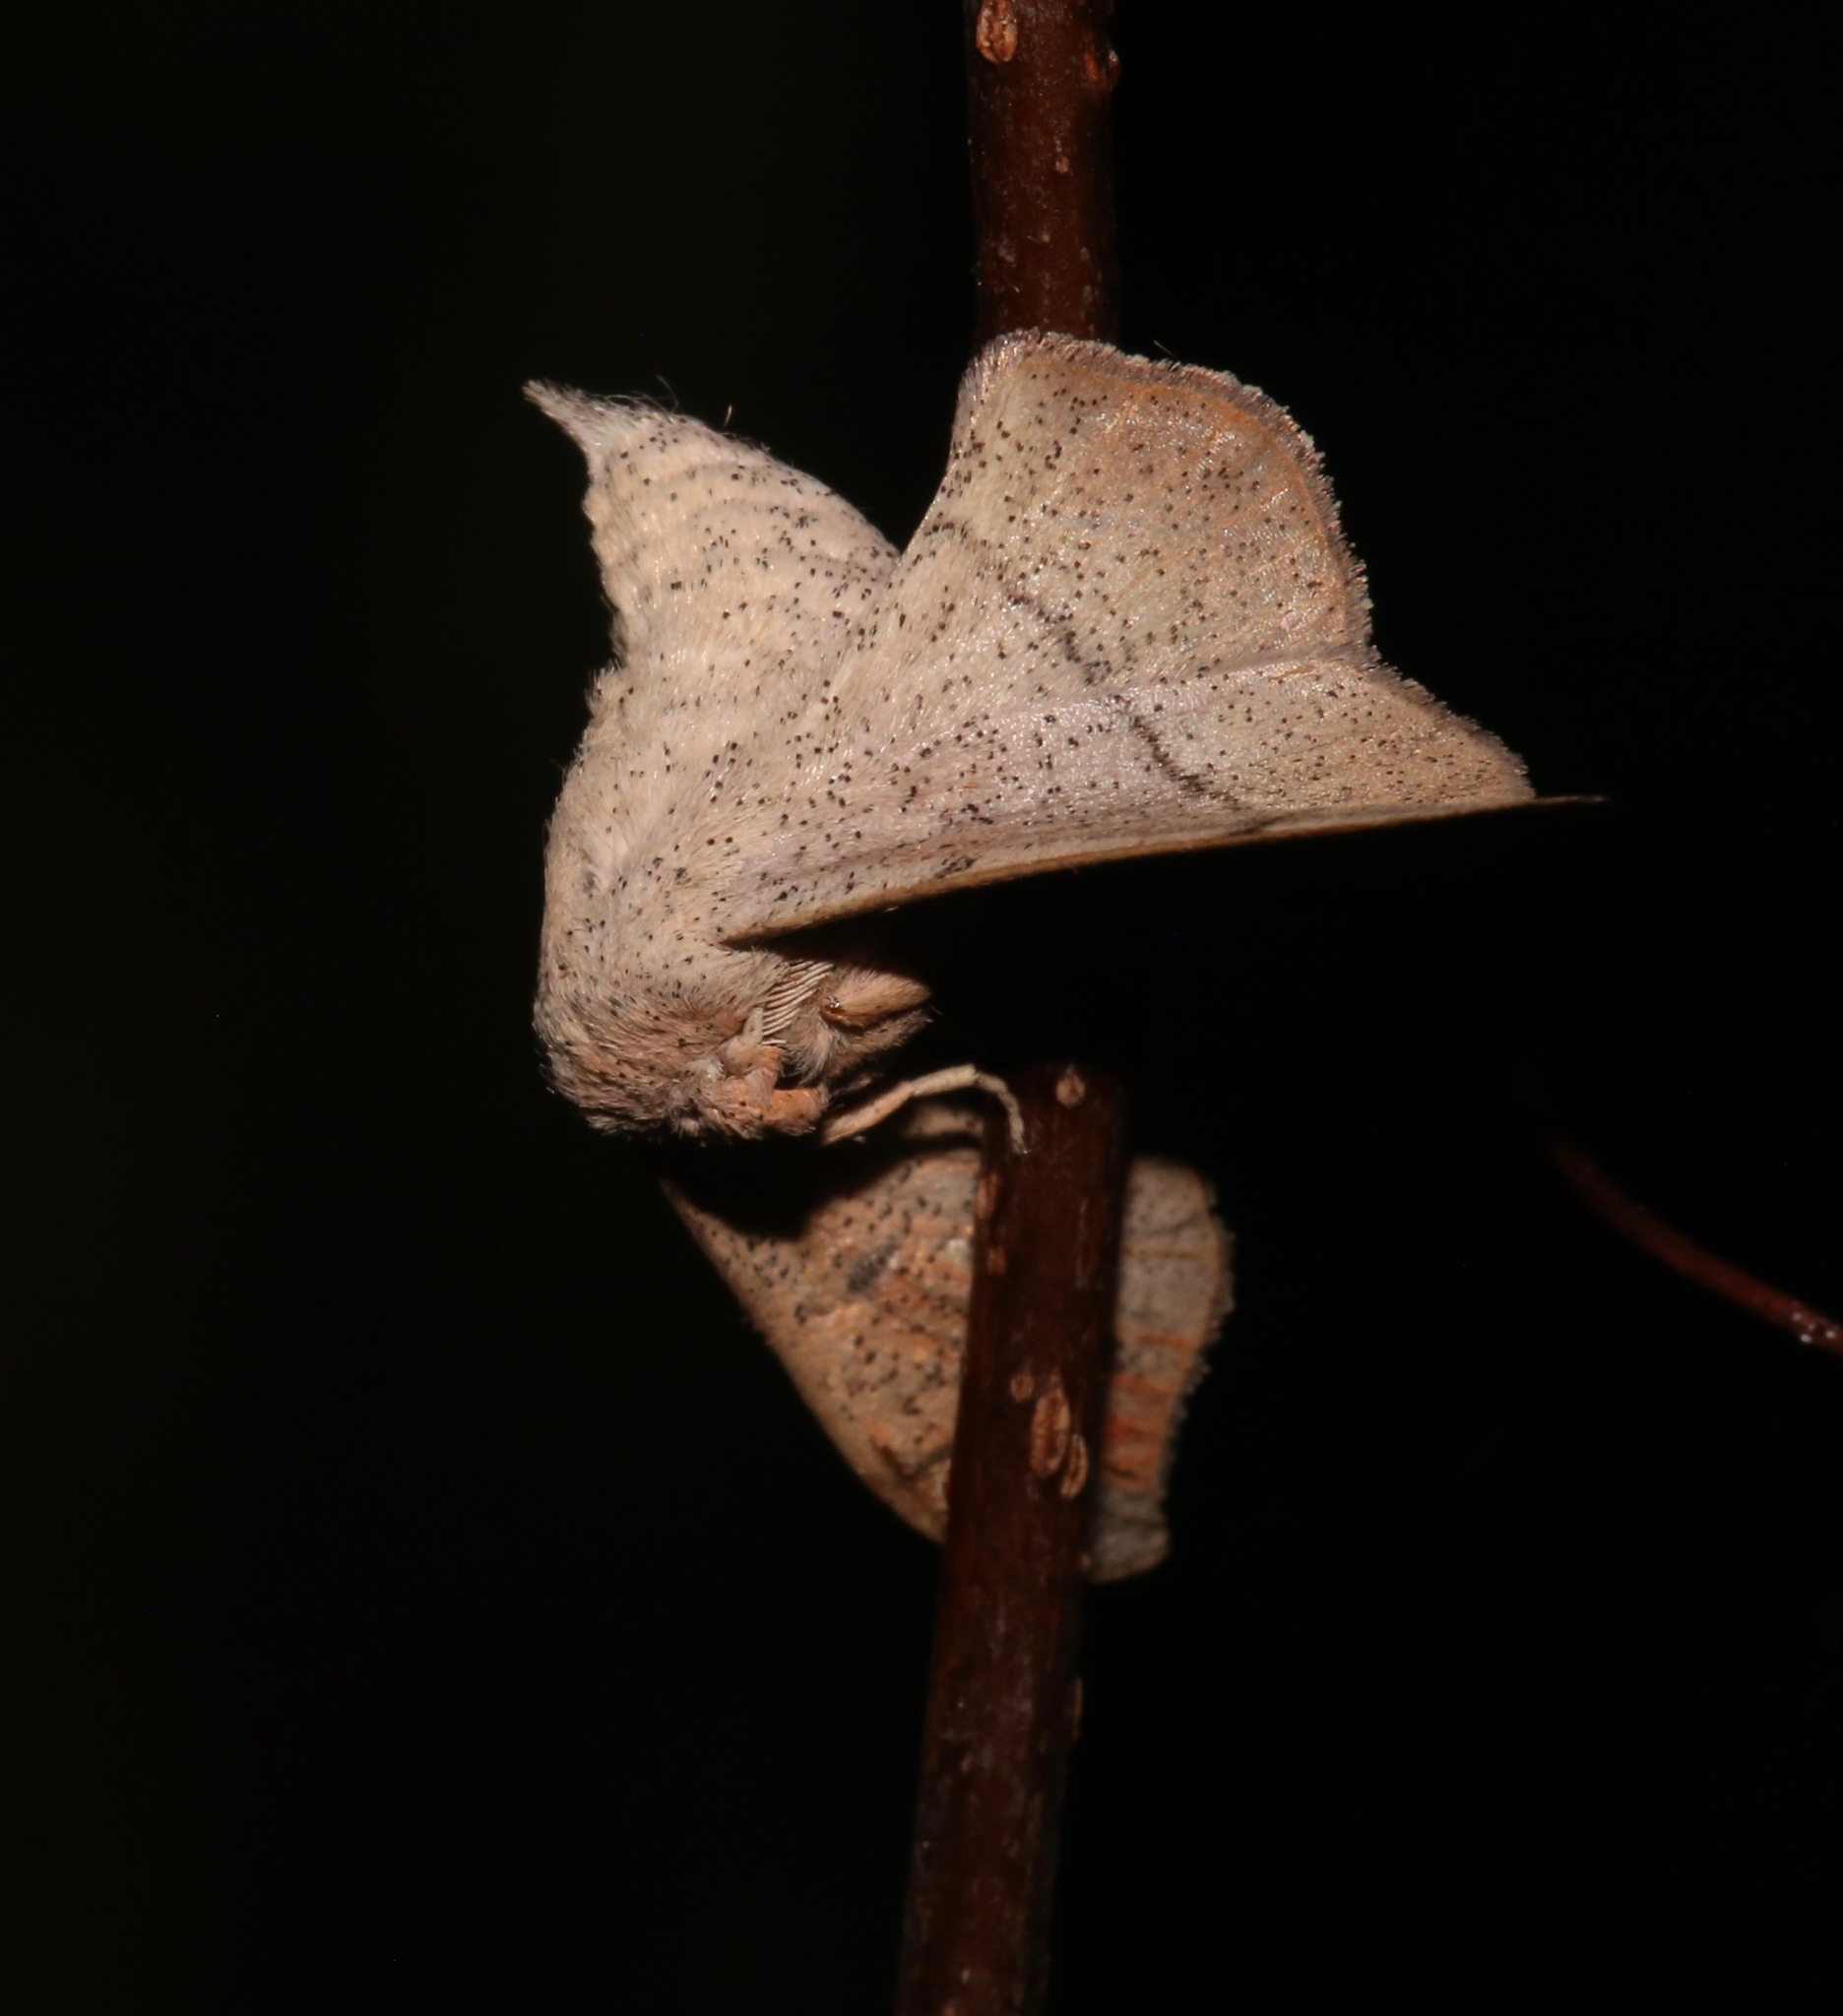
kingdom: Animalia
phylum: Arthropoda
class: Insecta
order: Lepidoptera
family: Mimallonidae
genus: Cicinnus
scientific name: Cicinnus melsheimeri
